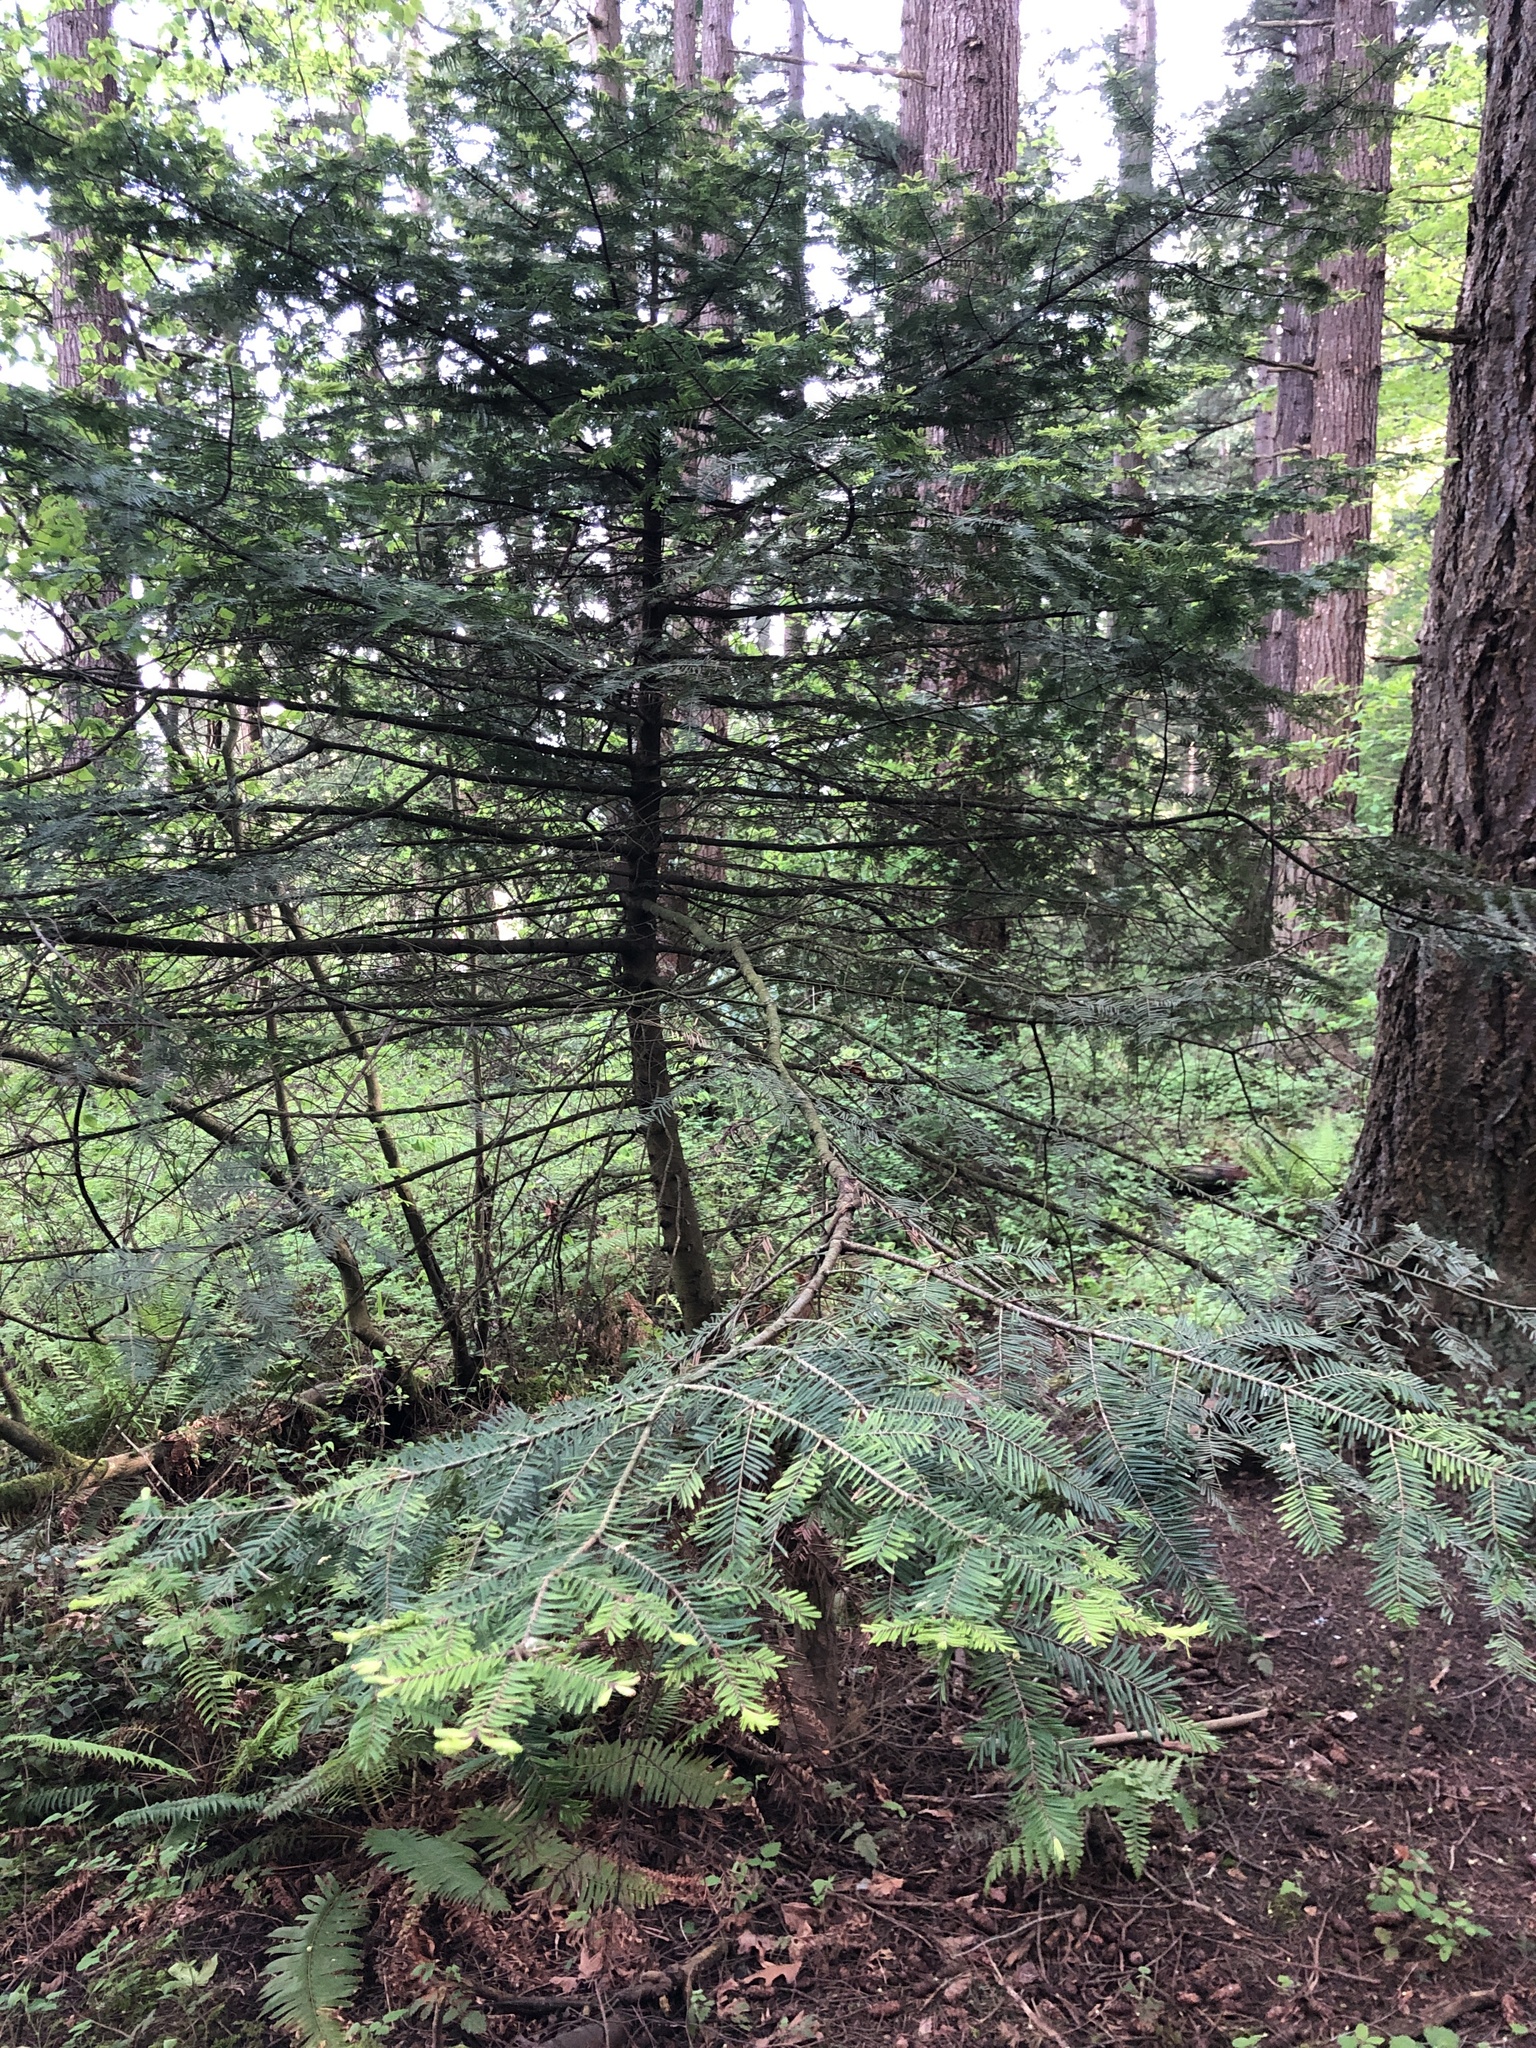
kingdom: Plantae
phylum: Tracheophyta
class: Pinopsida
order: Pinales
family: Pinaceae
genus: Abies
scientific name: Abies grandis
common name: Giant fir
